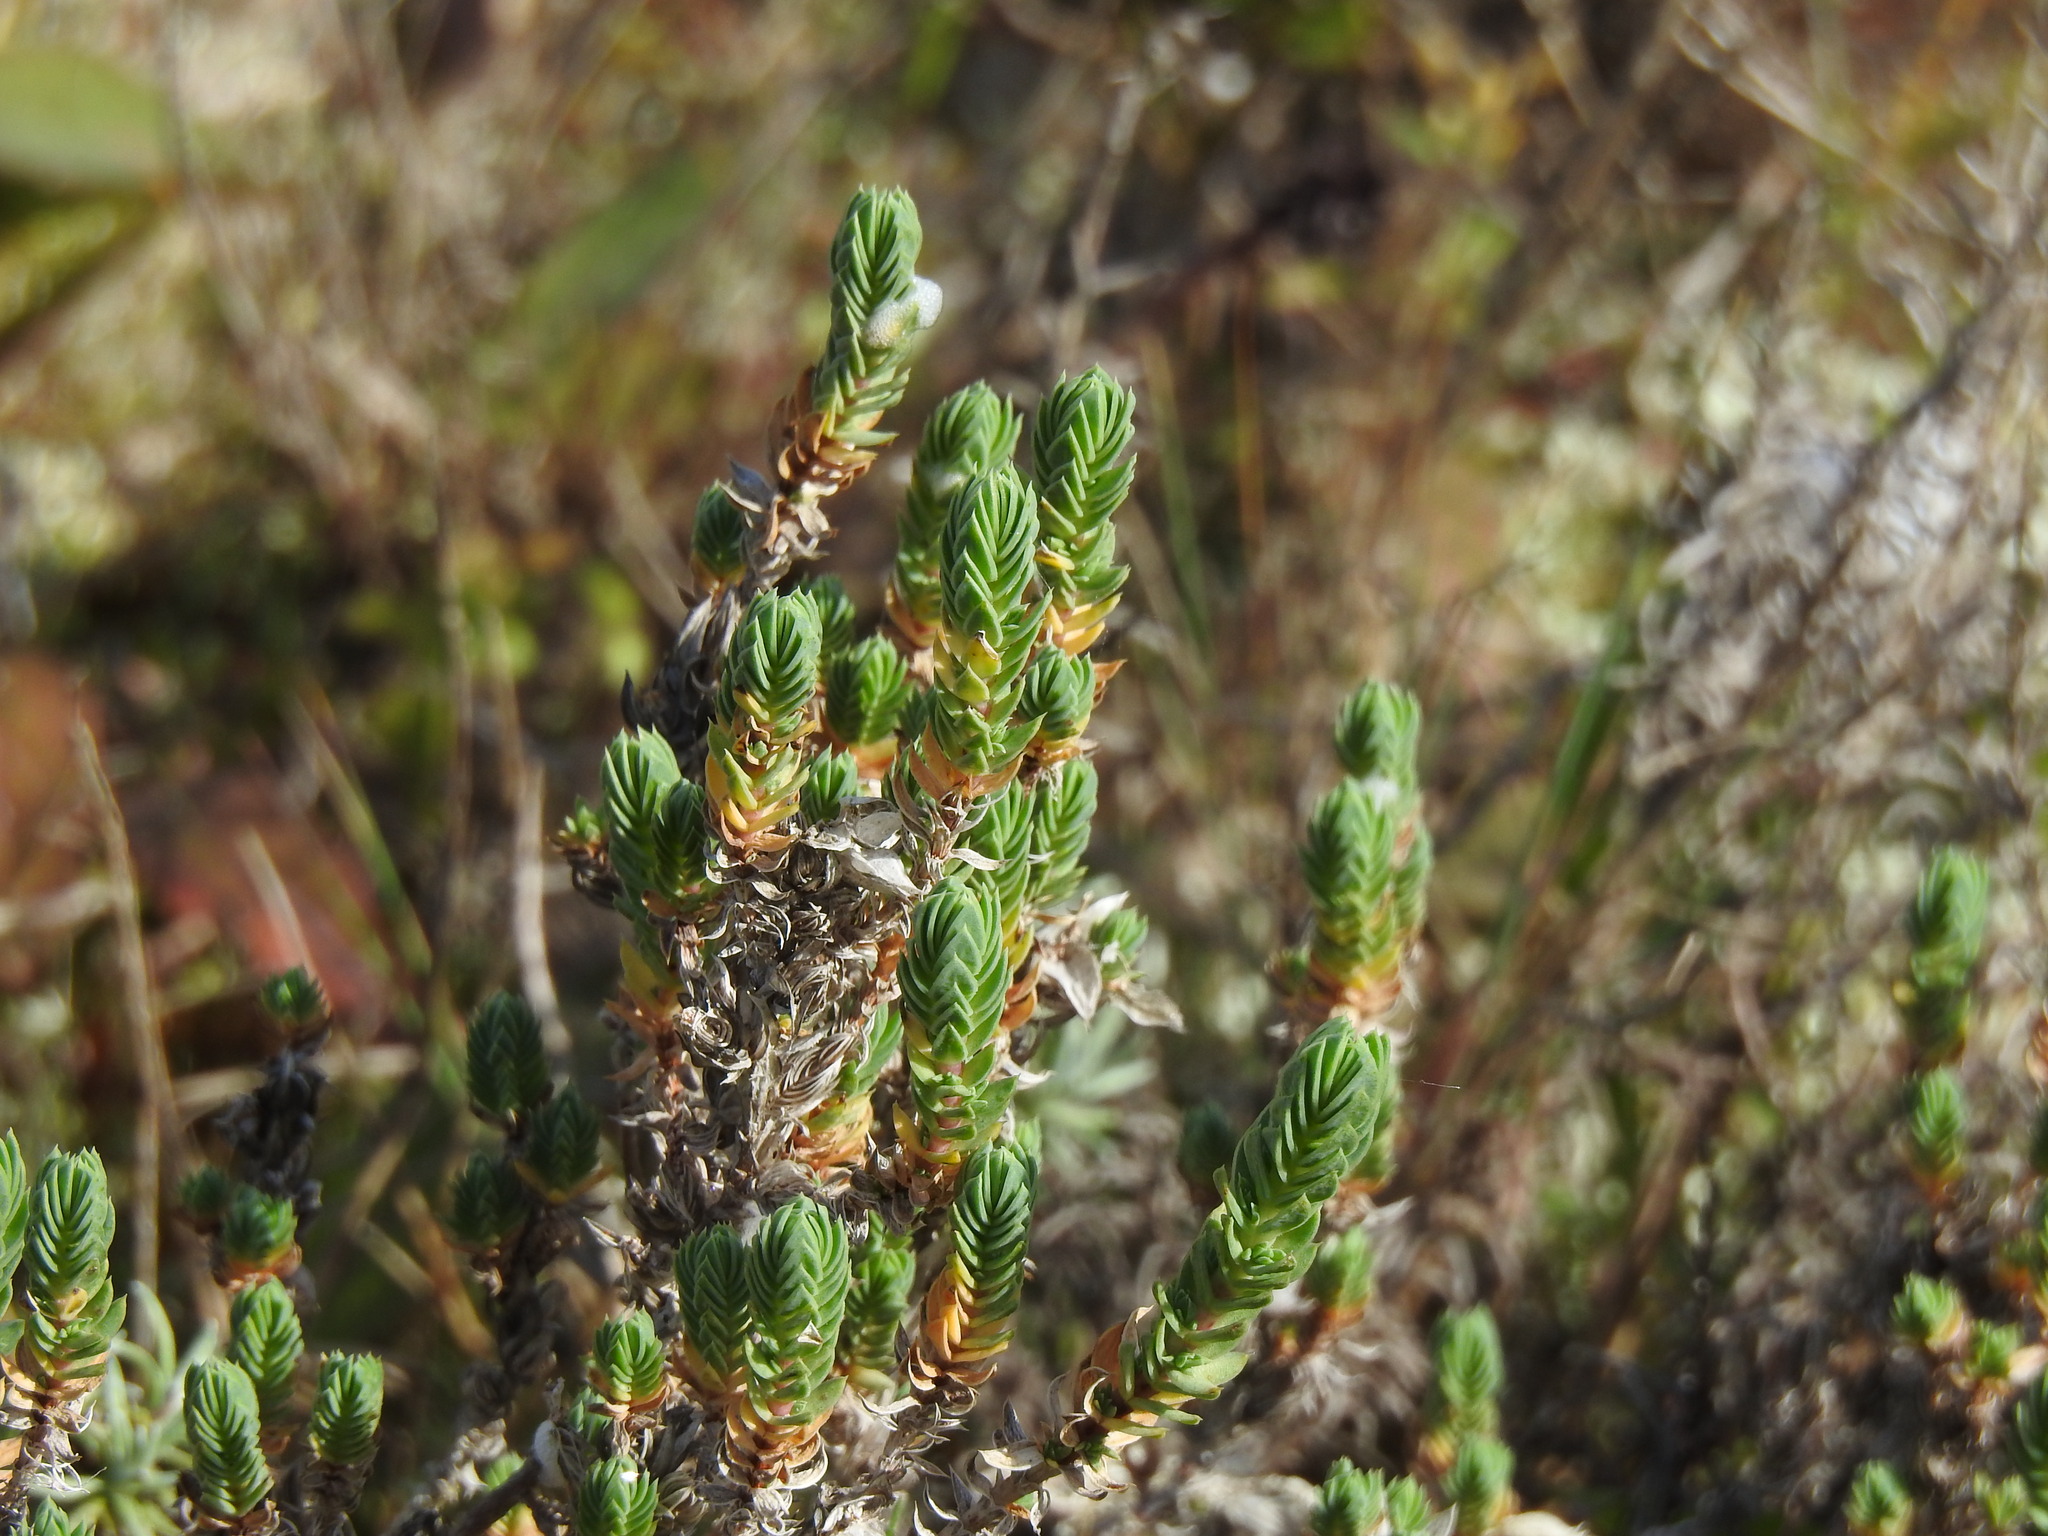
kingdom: Plantae
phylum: Tracheophyta
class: Magnoliopsida
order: Gentianales
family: Rubiaceae
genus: Crucianella
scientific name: Crucianella maritima
